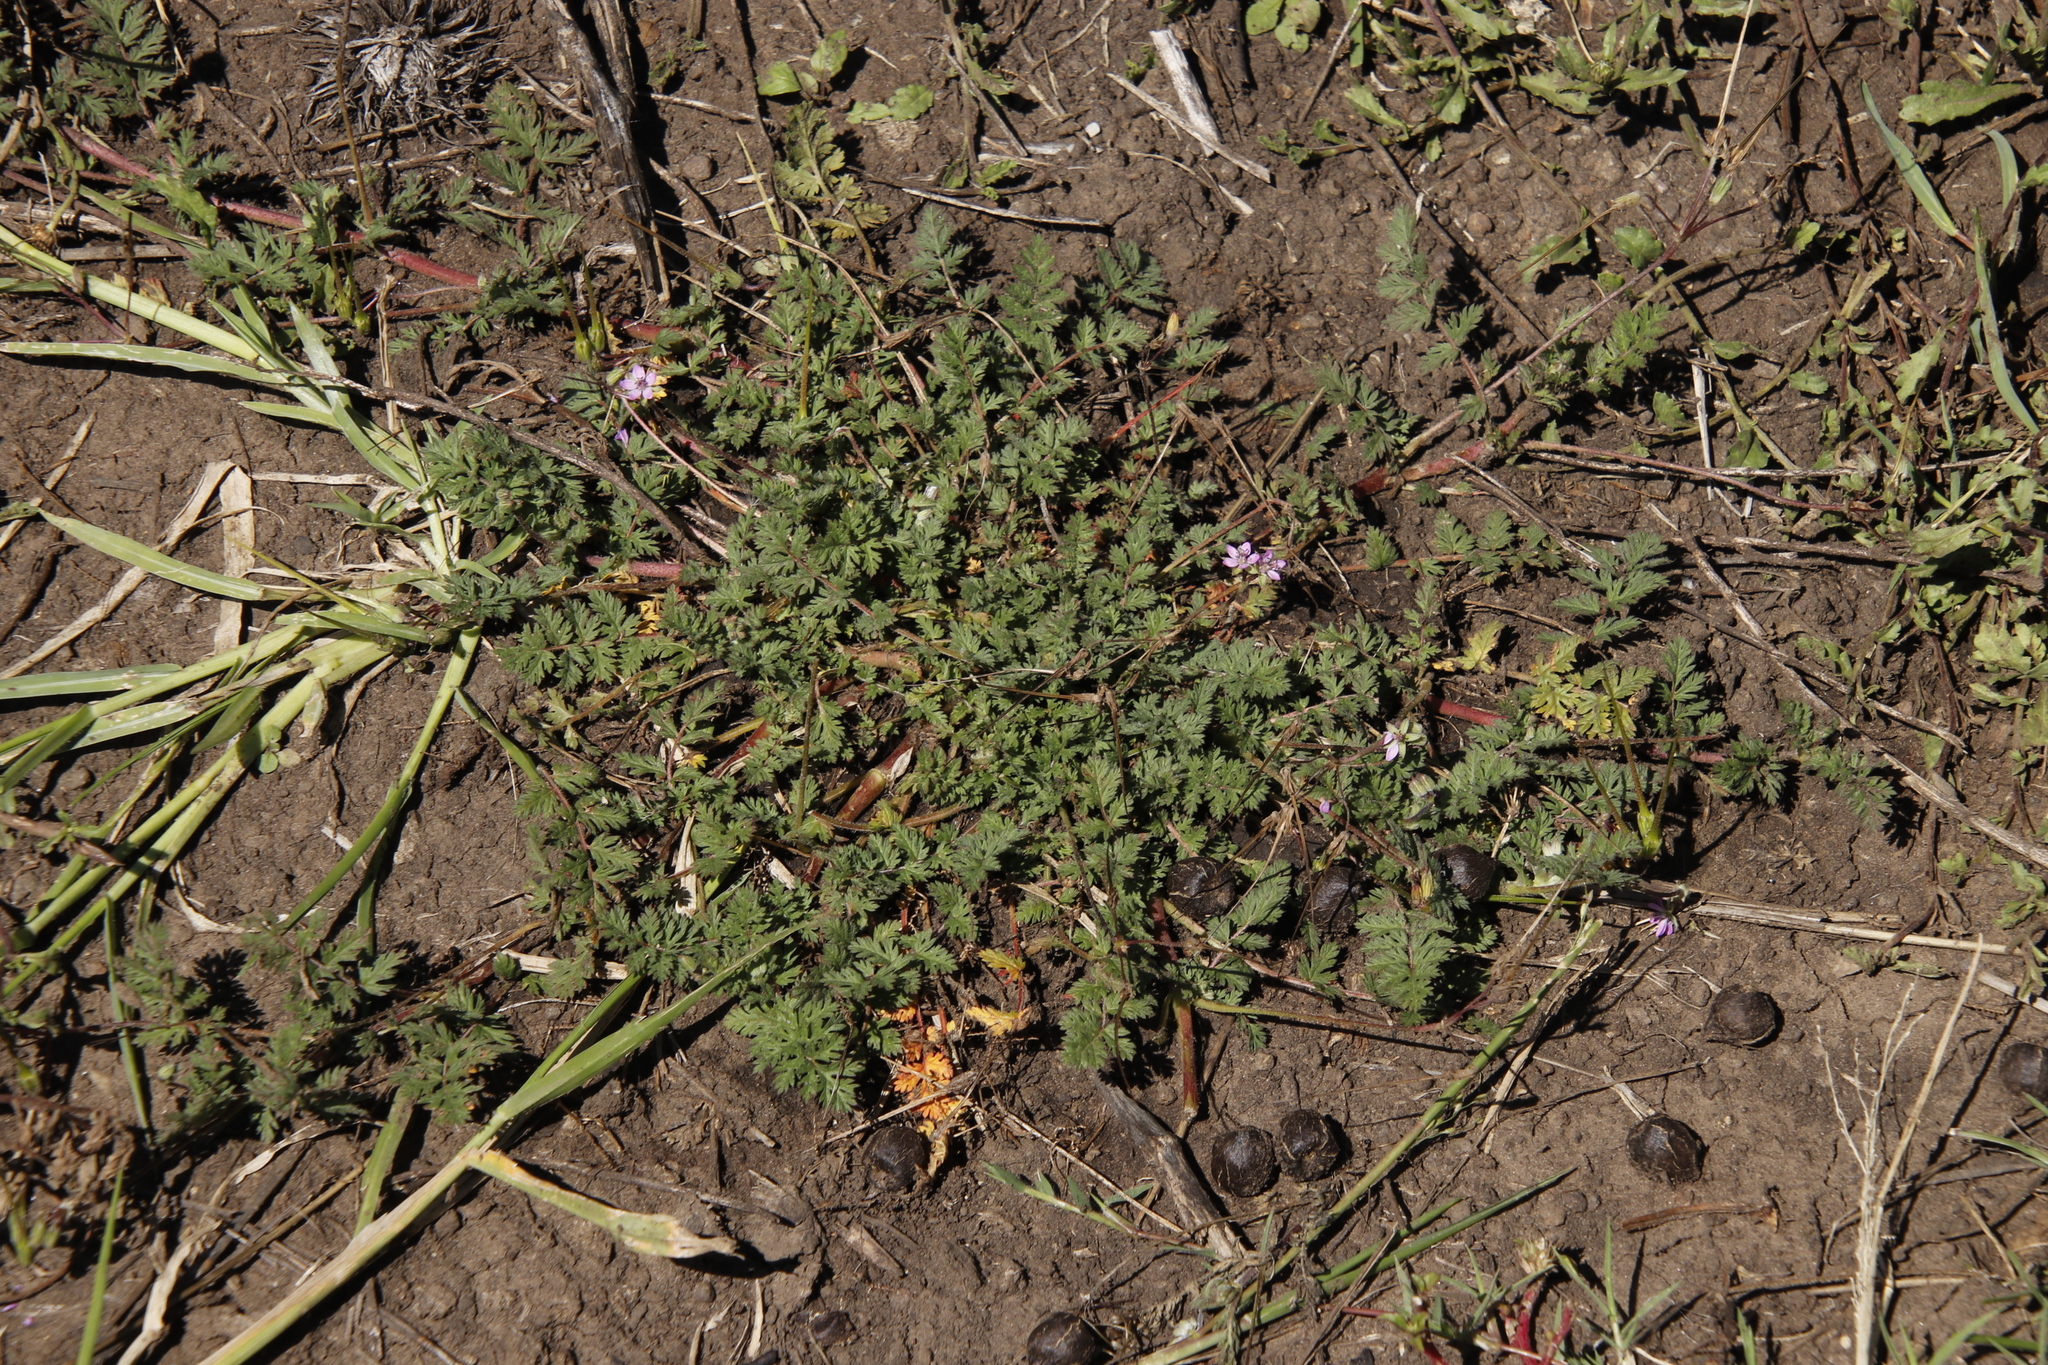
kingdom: Plantae
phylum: Tracheophyta
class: Magnoliopsida
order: Geraniales
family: Geraniaceae
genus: Erodium
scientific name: Erodium cicutarium
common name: Common stork's-bill
